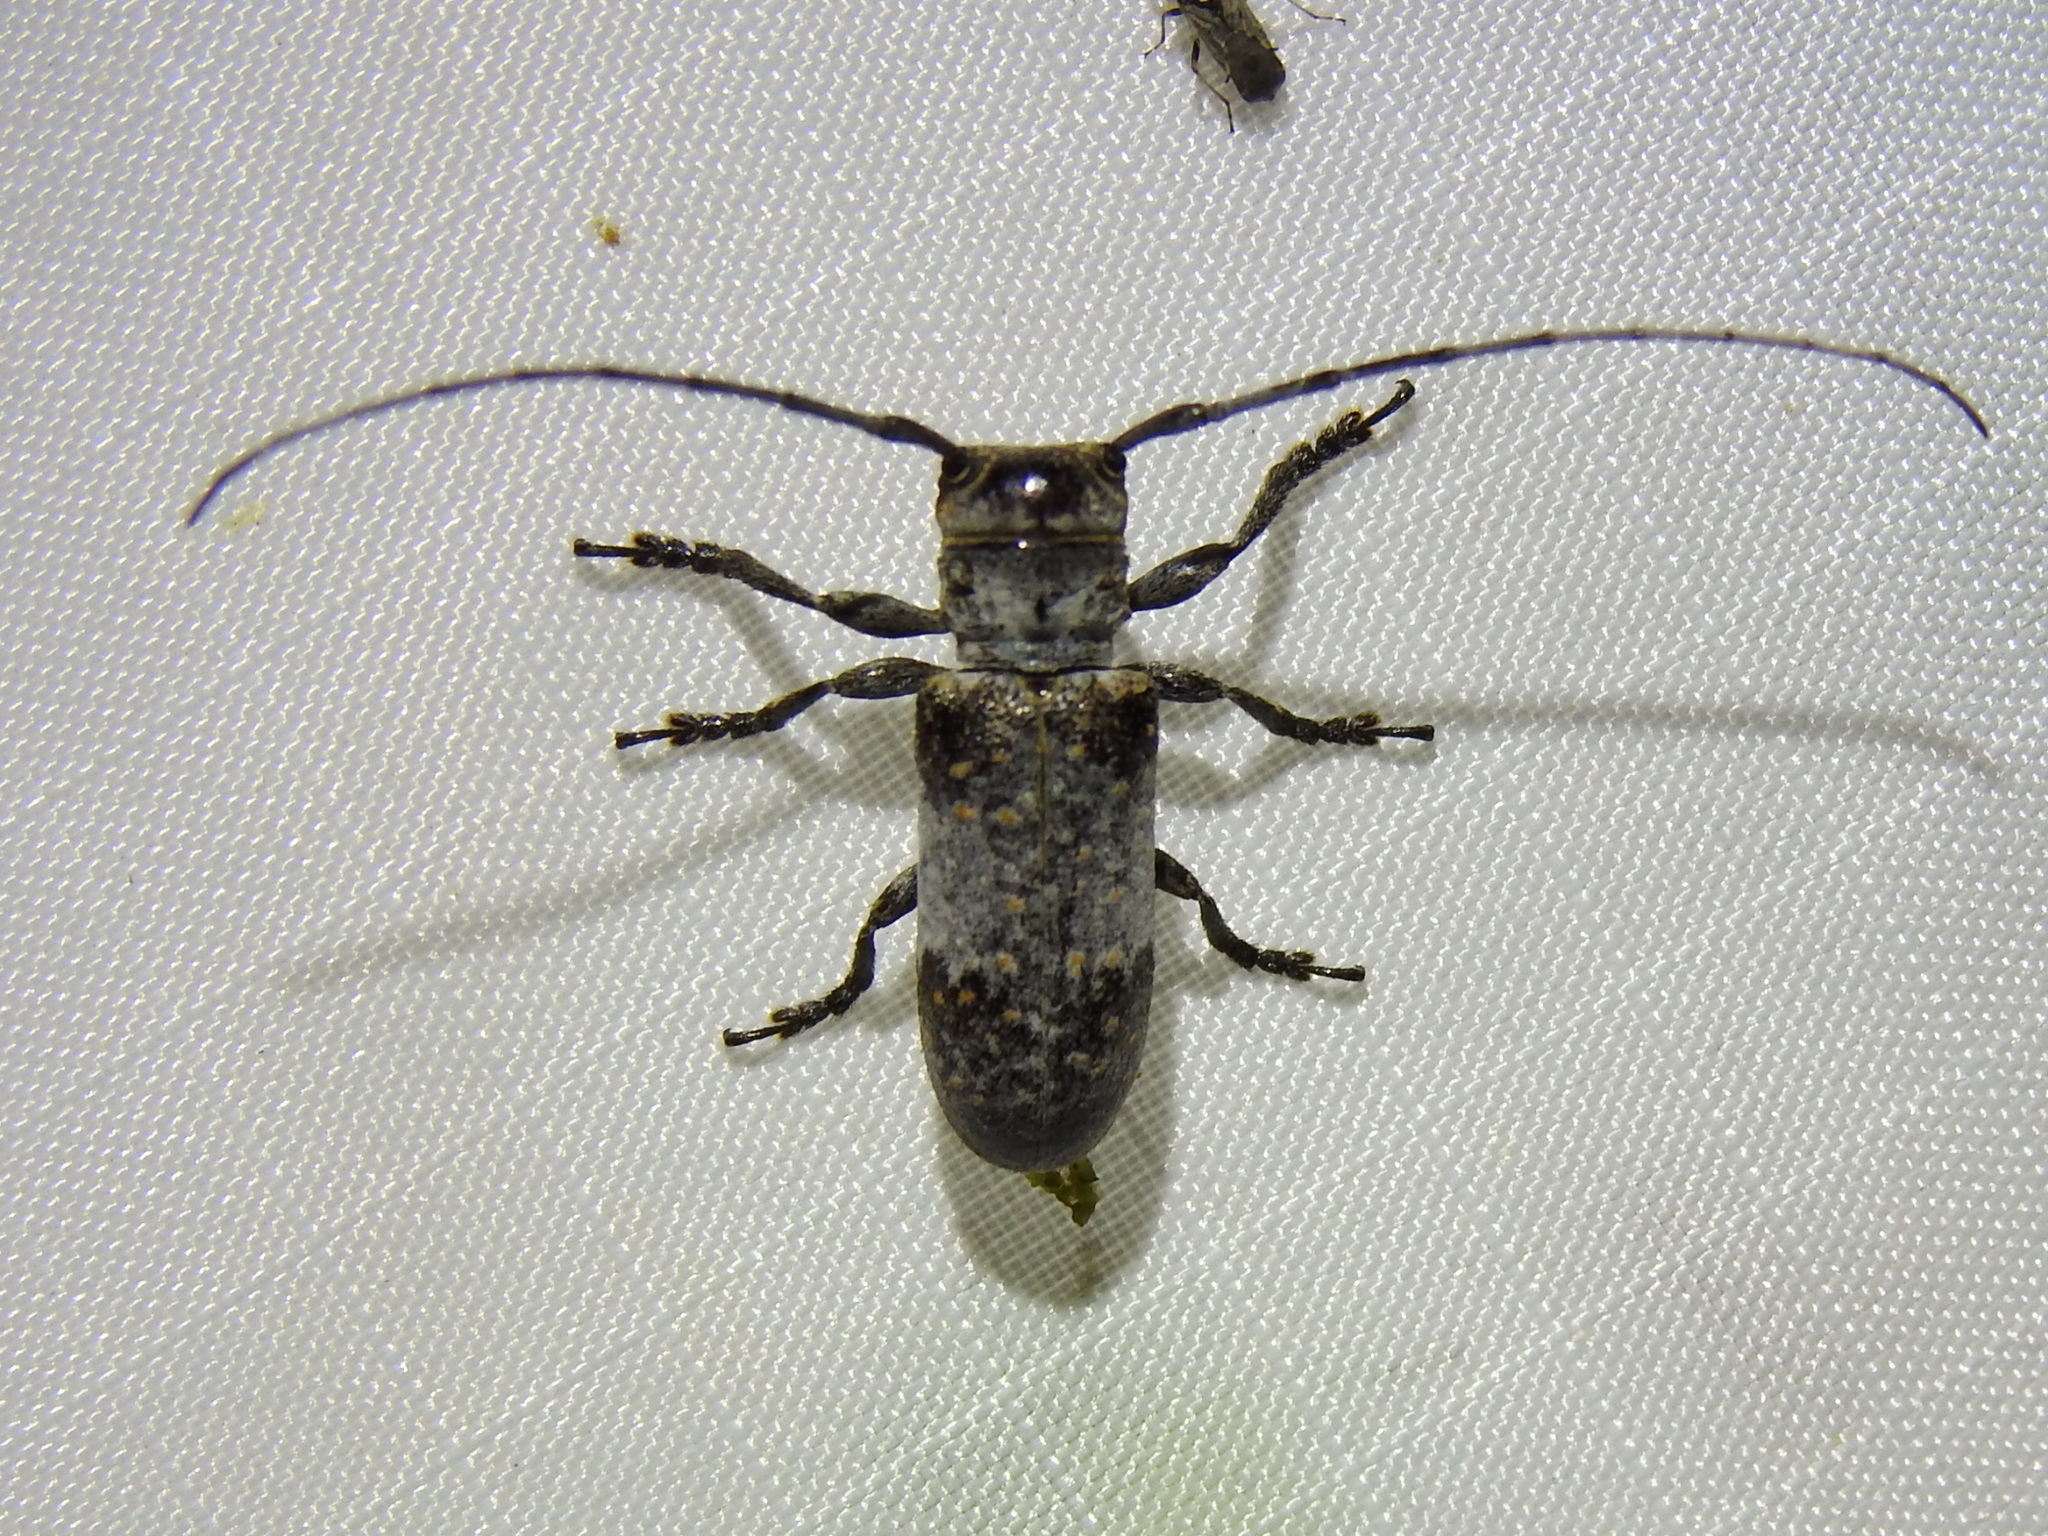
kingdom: Animalia
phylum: Arthropoda
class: Insecta
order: Coleoptera
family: Cerambycidae
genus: Oncideres
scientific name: Oncideres cingulata
